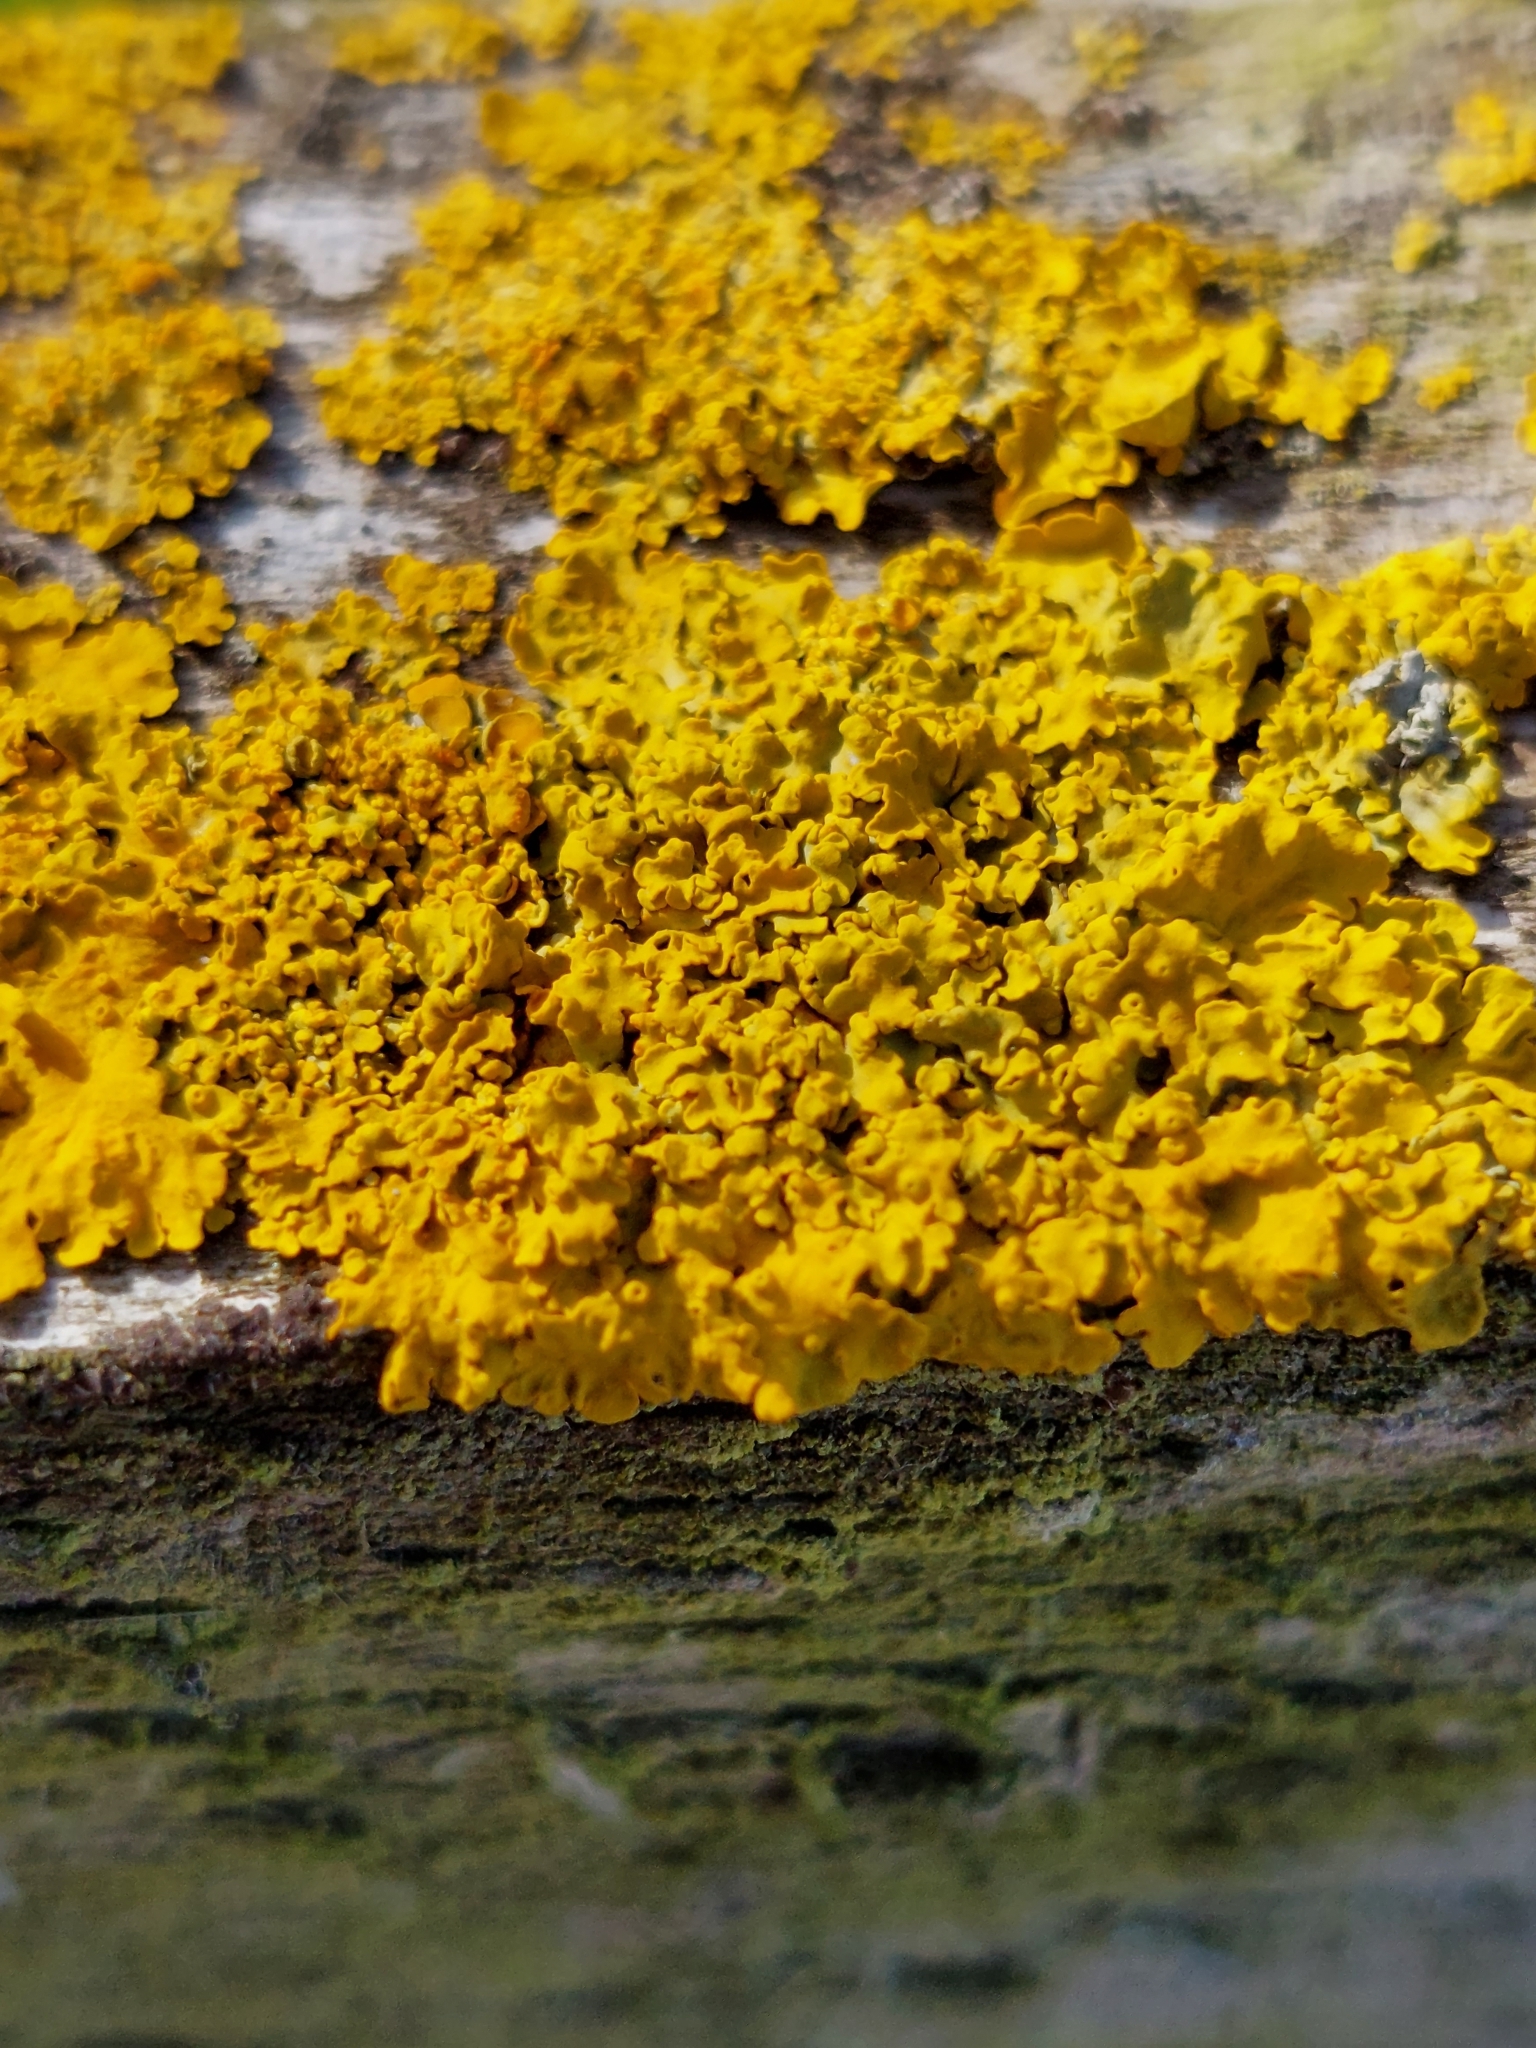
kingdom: Fungi
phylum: Ascomycota
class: Lecanoromycetes
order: Teloschistales
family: Teloschistaceae
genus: Xanthoria
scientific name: Xanthoria parietina
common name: Common orange lichen
